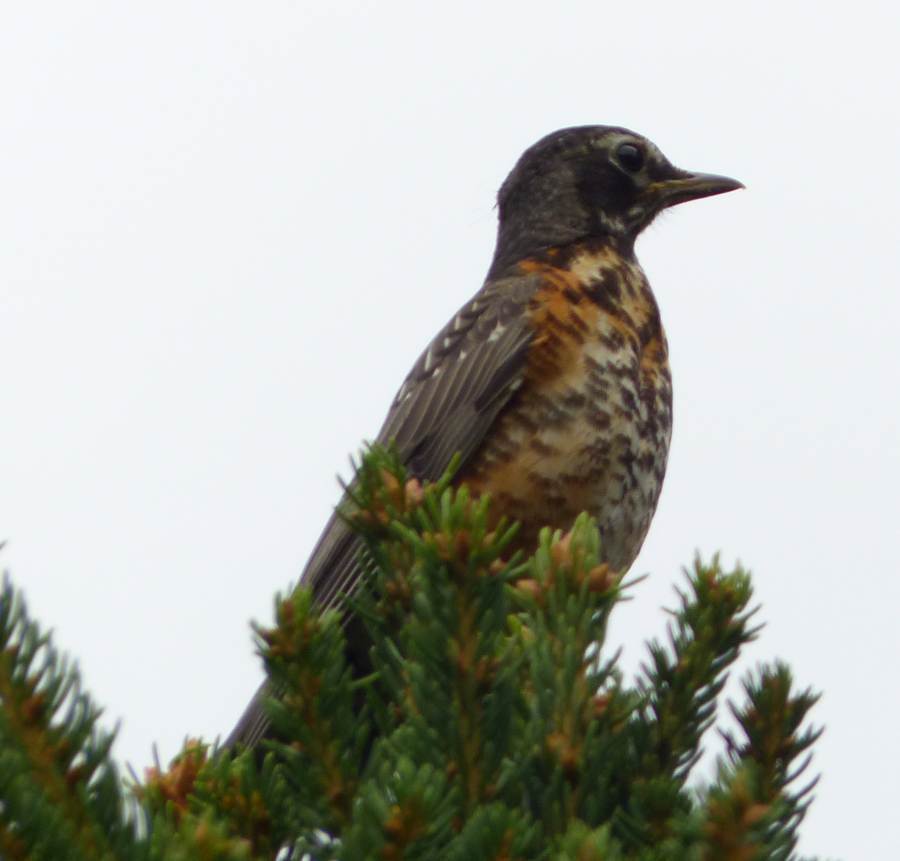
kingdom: Animalia
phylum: Chordata
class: Aves
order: Passeriformes
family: Turdidae
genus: Turdus
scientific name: Turdus migratorius
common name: American robin
